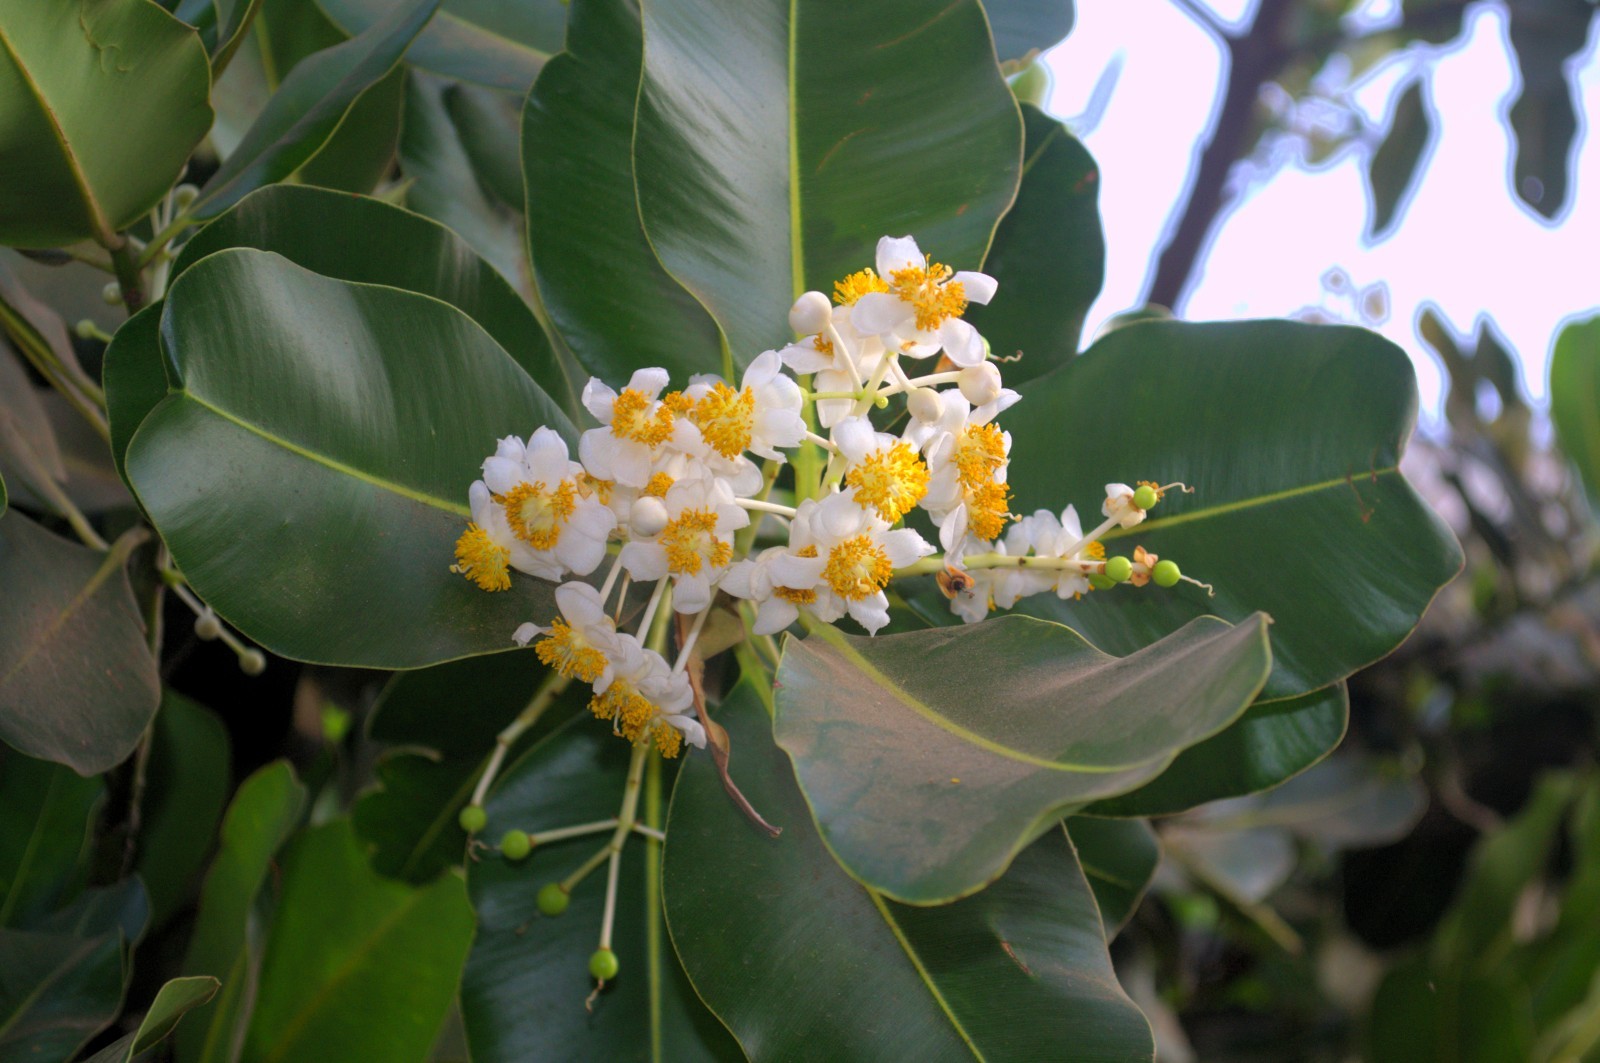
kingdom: Plantae
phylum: Tracheophyta
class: Magnoliopsida
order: Malpighiales
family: Calophyllaceae
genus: Calophyllum
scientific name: Calophyllum inophyllum
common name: Alexandrian laurel
